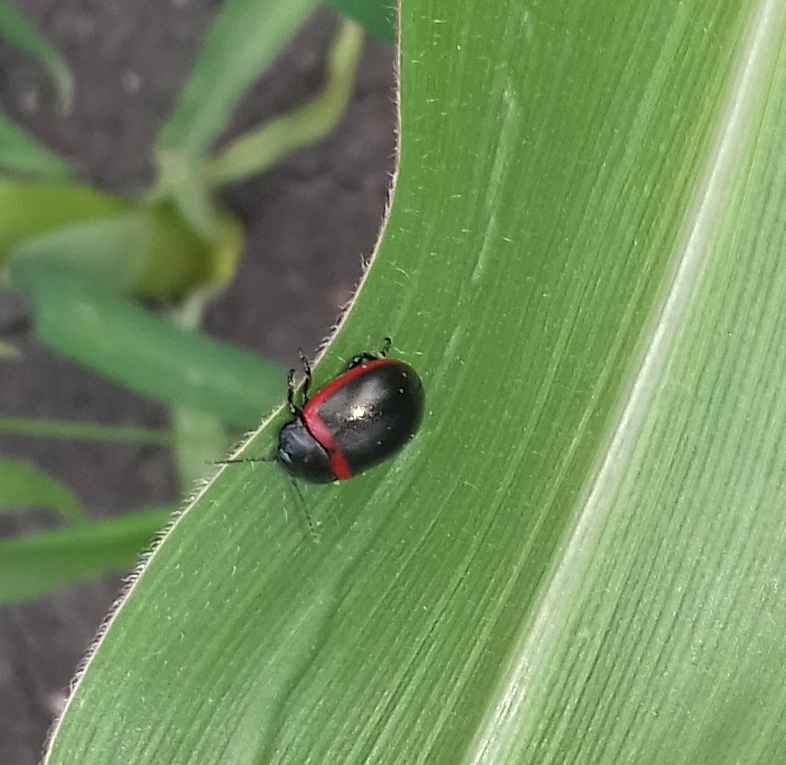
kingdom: Animalia
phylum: Arthropoda
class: Insecta
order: Coleoptera
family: Chrysomelidae
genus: Chrysolina
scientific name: Chrysolina limbata
